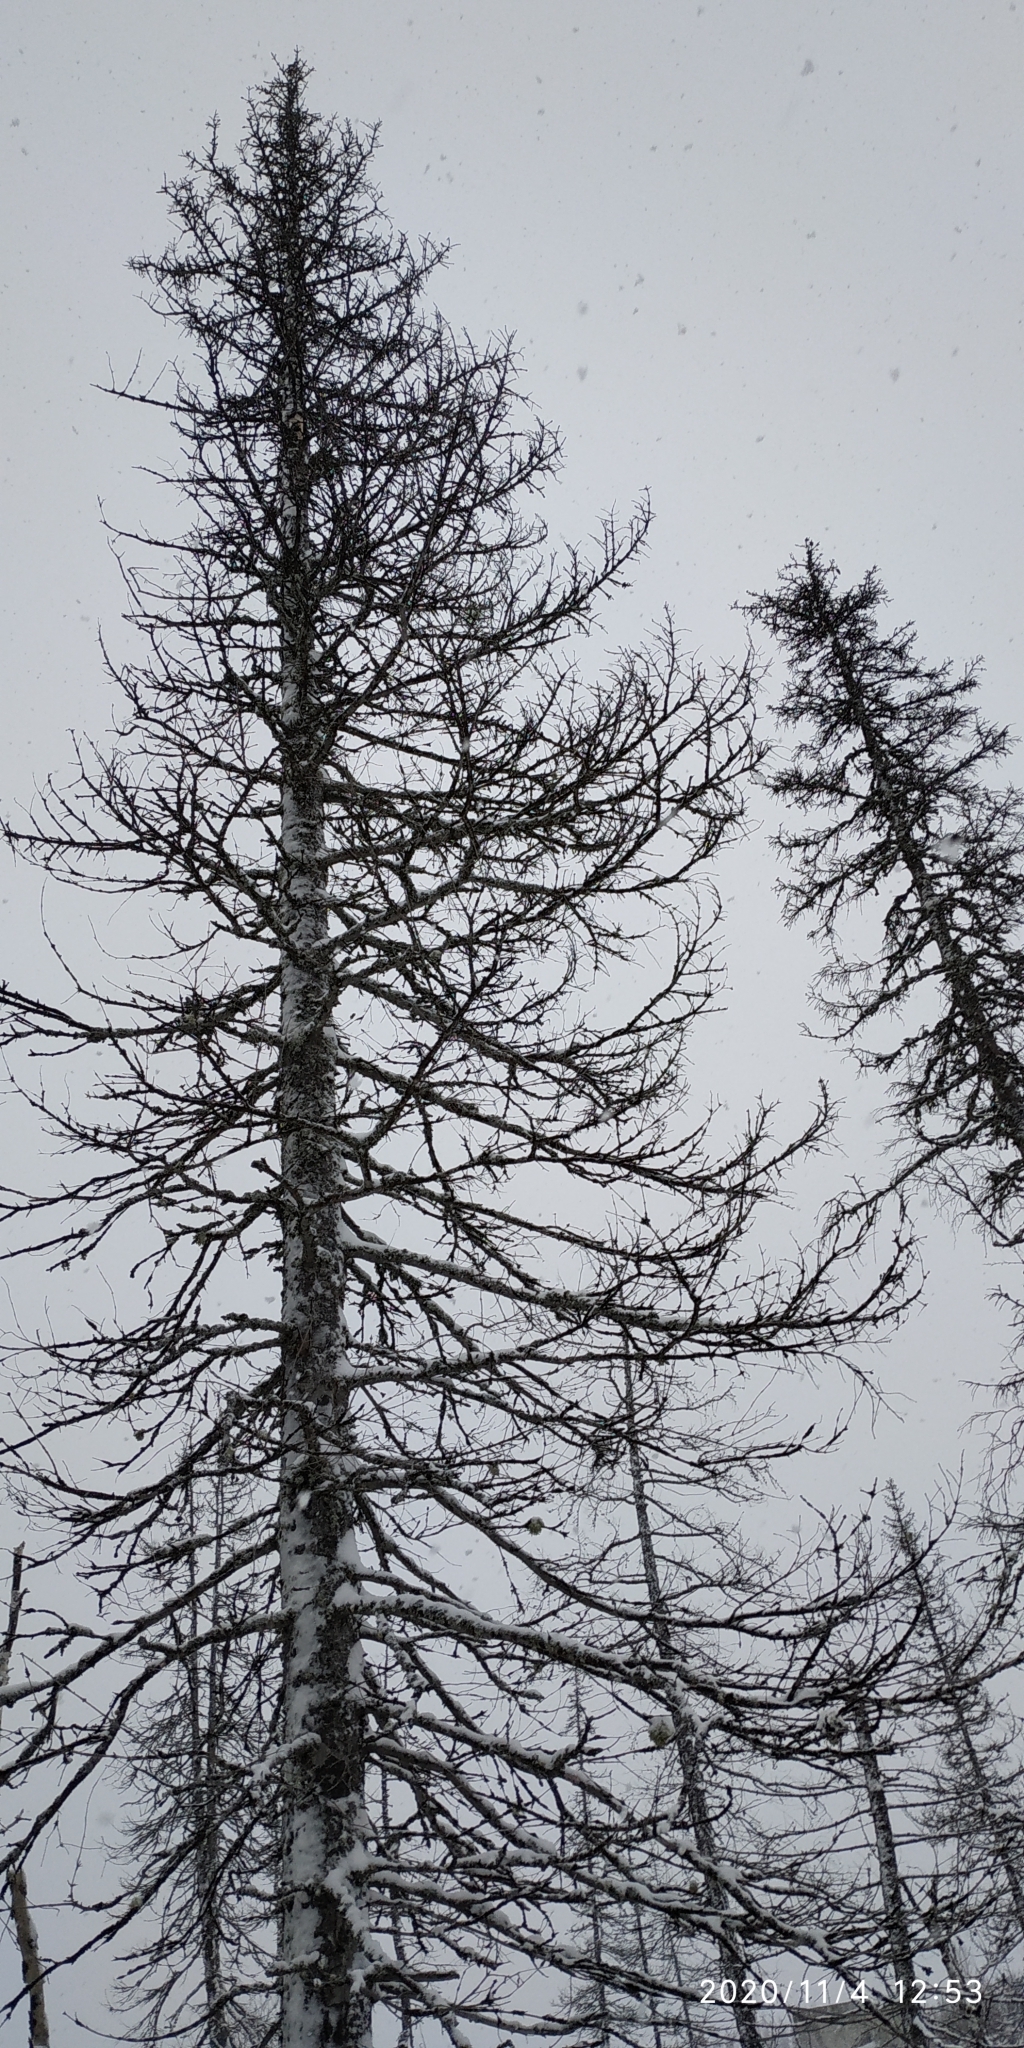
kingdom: Plantae
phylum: Tracheophyta
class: Pinopsida
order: Pinales
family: Pinaceae
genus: Larix
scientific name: Larix sibirica
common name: Siberian larch
